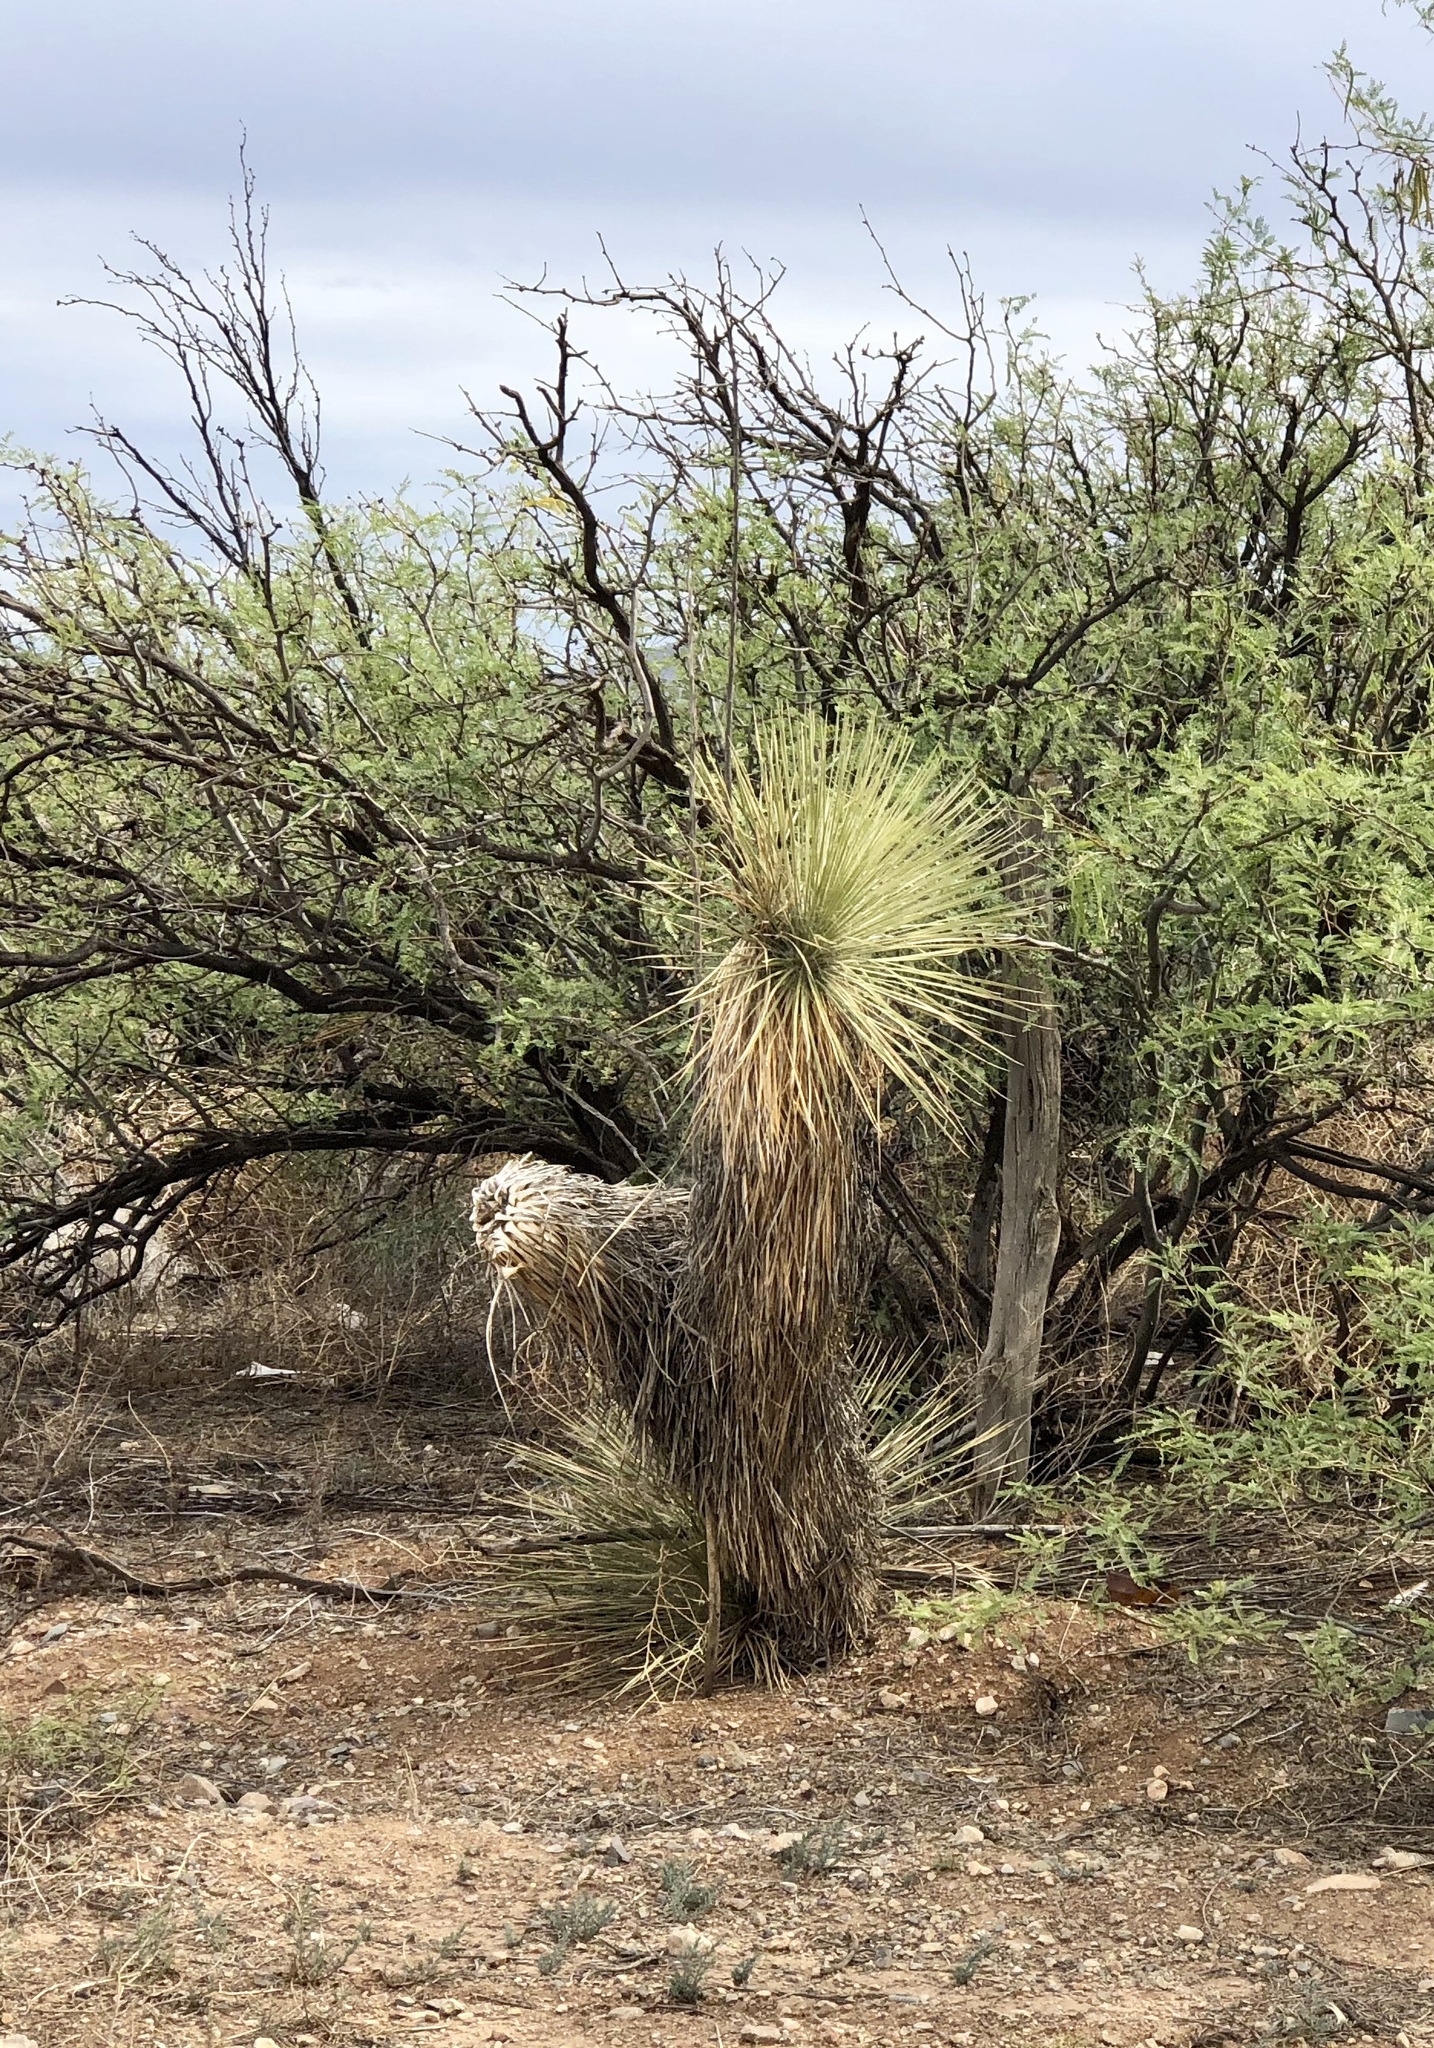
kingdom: Plantae
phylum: Tracheophyta
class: Liliopsida
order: Asparagales
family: Asparagaceae
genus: Yucca
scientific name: Yucca elata
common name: Palmella
